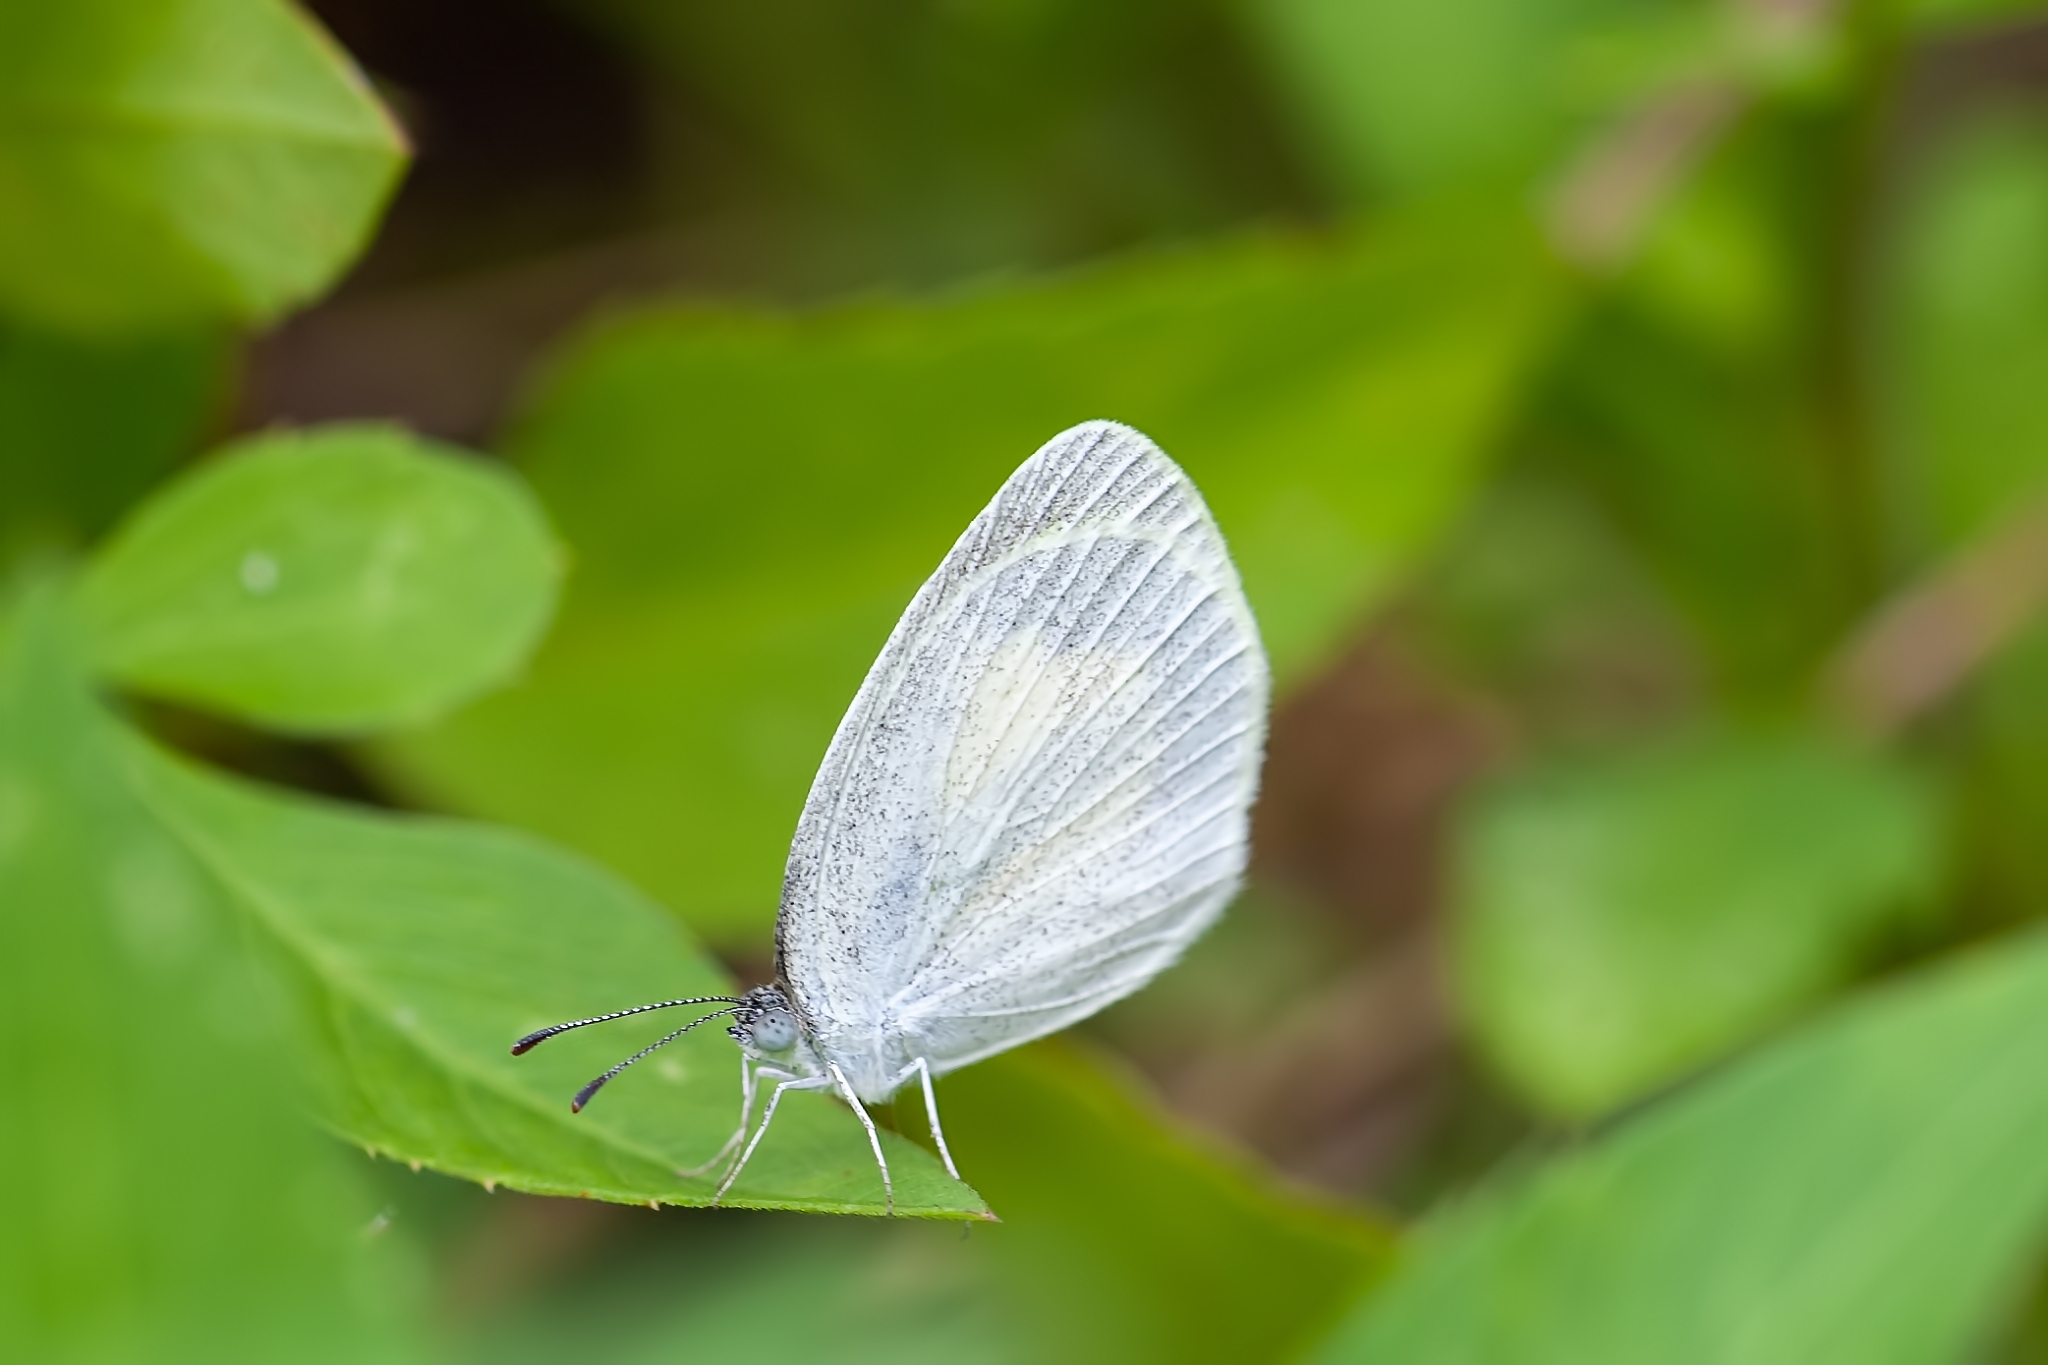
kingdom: Animalia
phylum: Arthropoda
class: Insecta
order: Lepidoptera
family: Pieridae
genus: Eurema
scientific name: Eurema daira
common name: Barred sulphur
